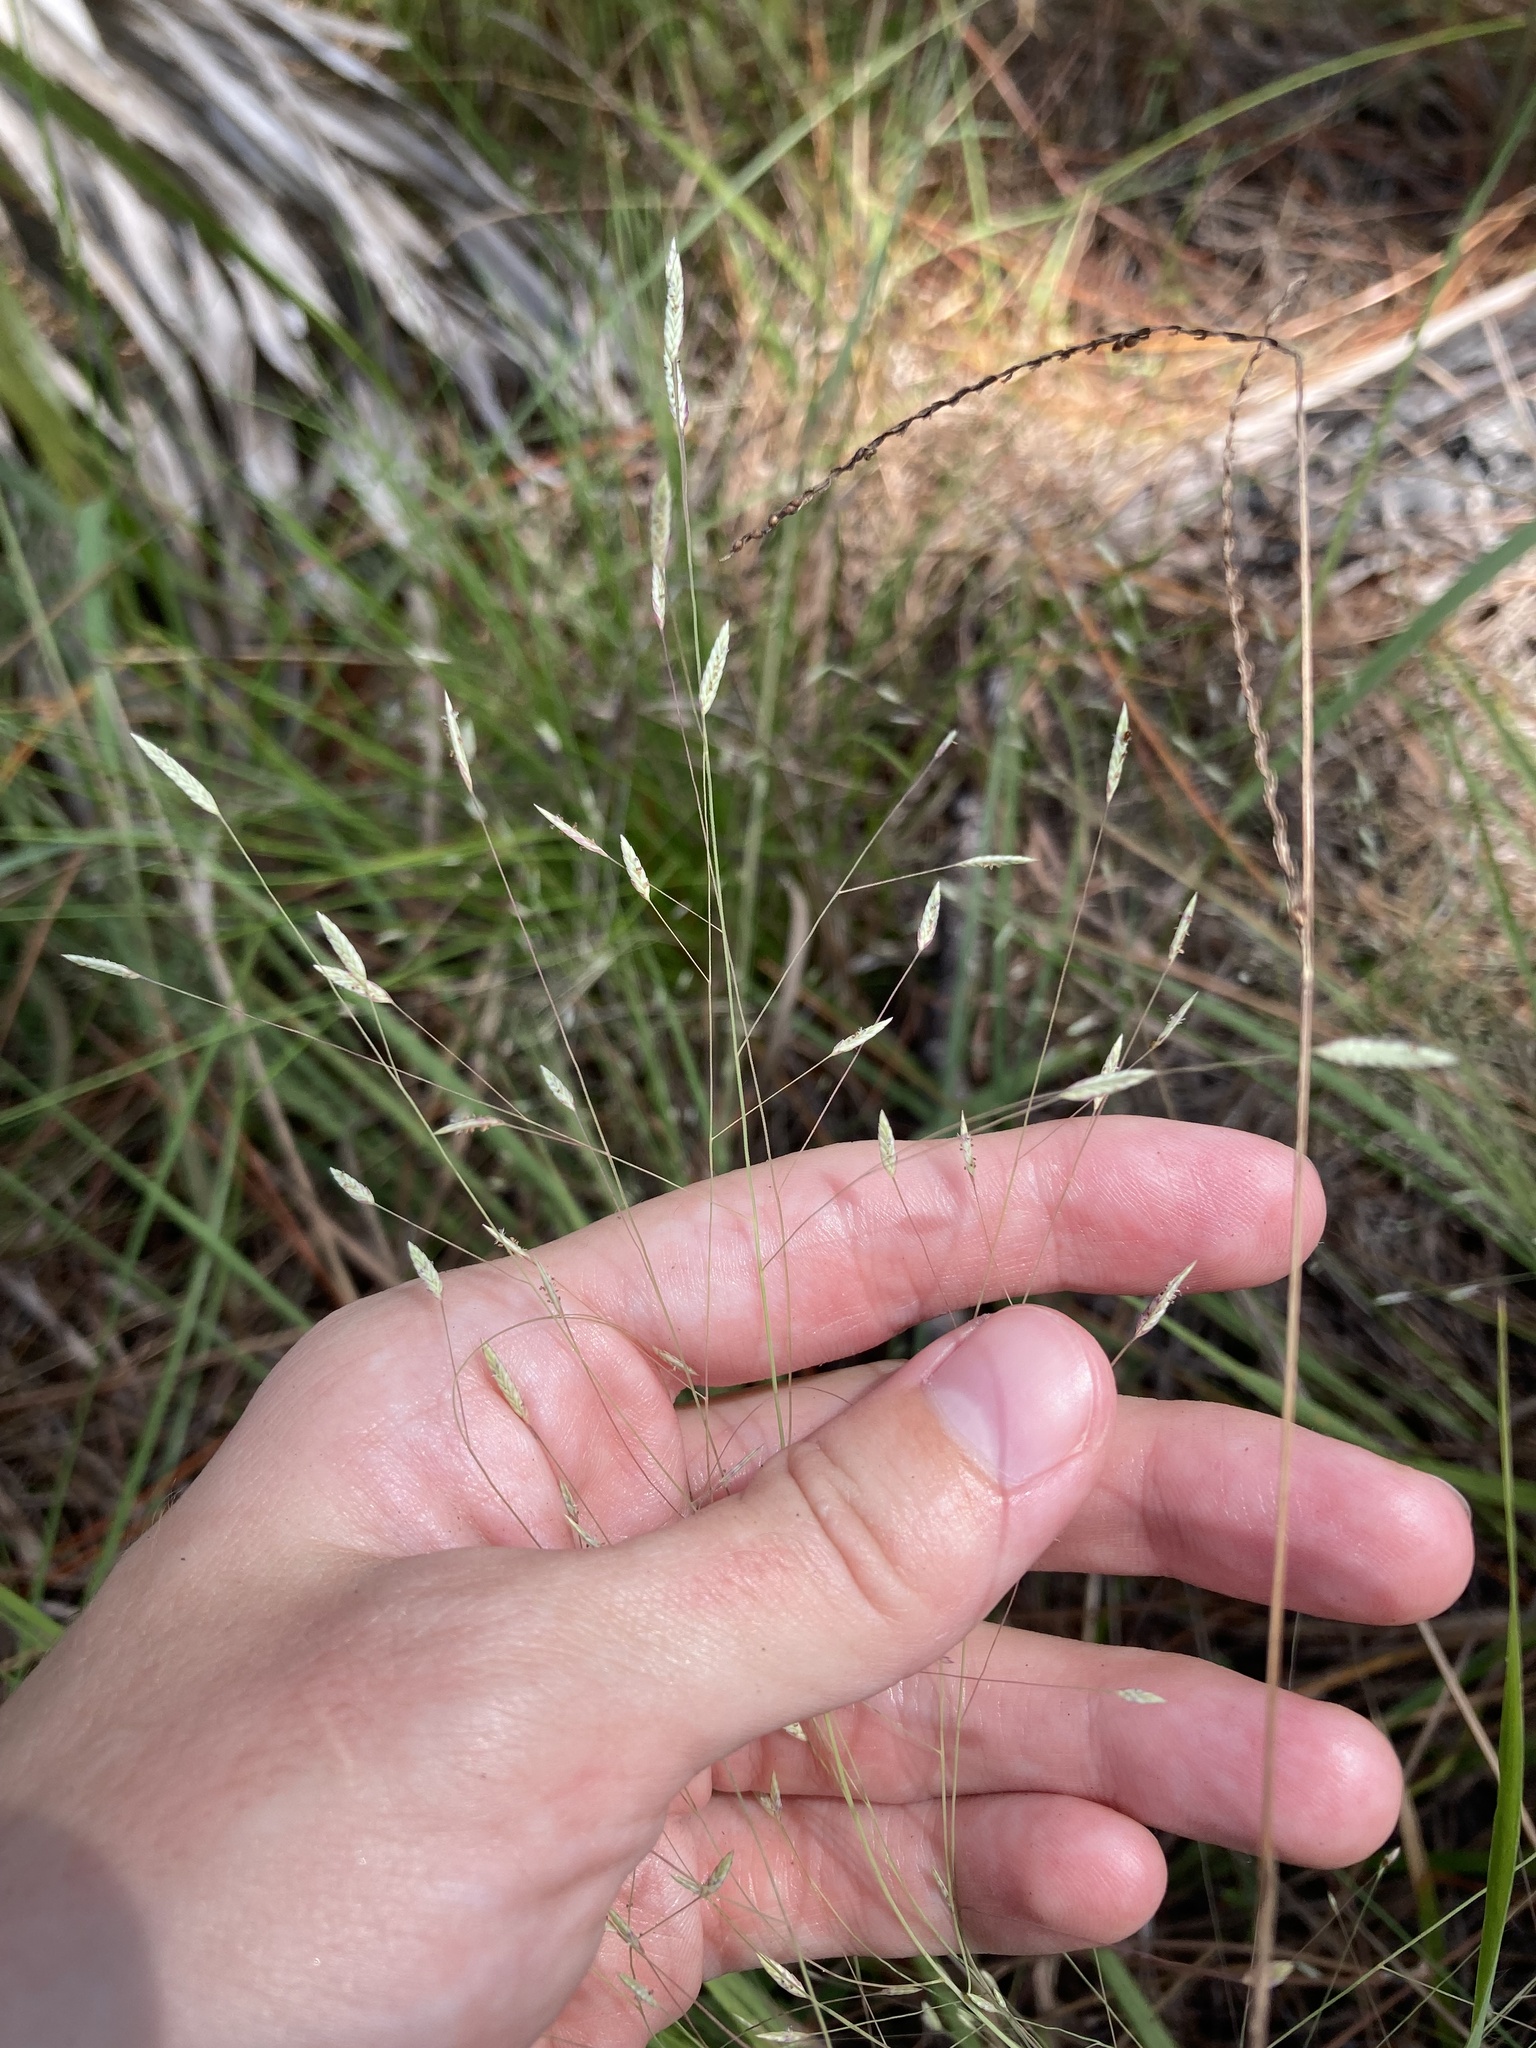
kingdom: Plantae
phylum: Tracheophyta
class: Liliopsida
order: Poales
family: Poaceae
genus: Eragrostis
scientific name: Eragrostis elliottii
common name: Elliott's love grass
